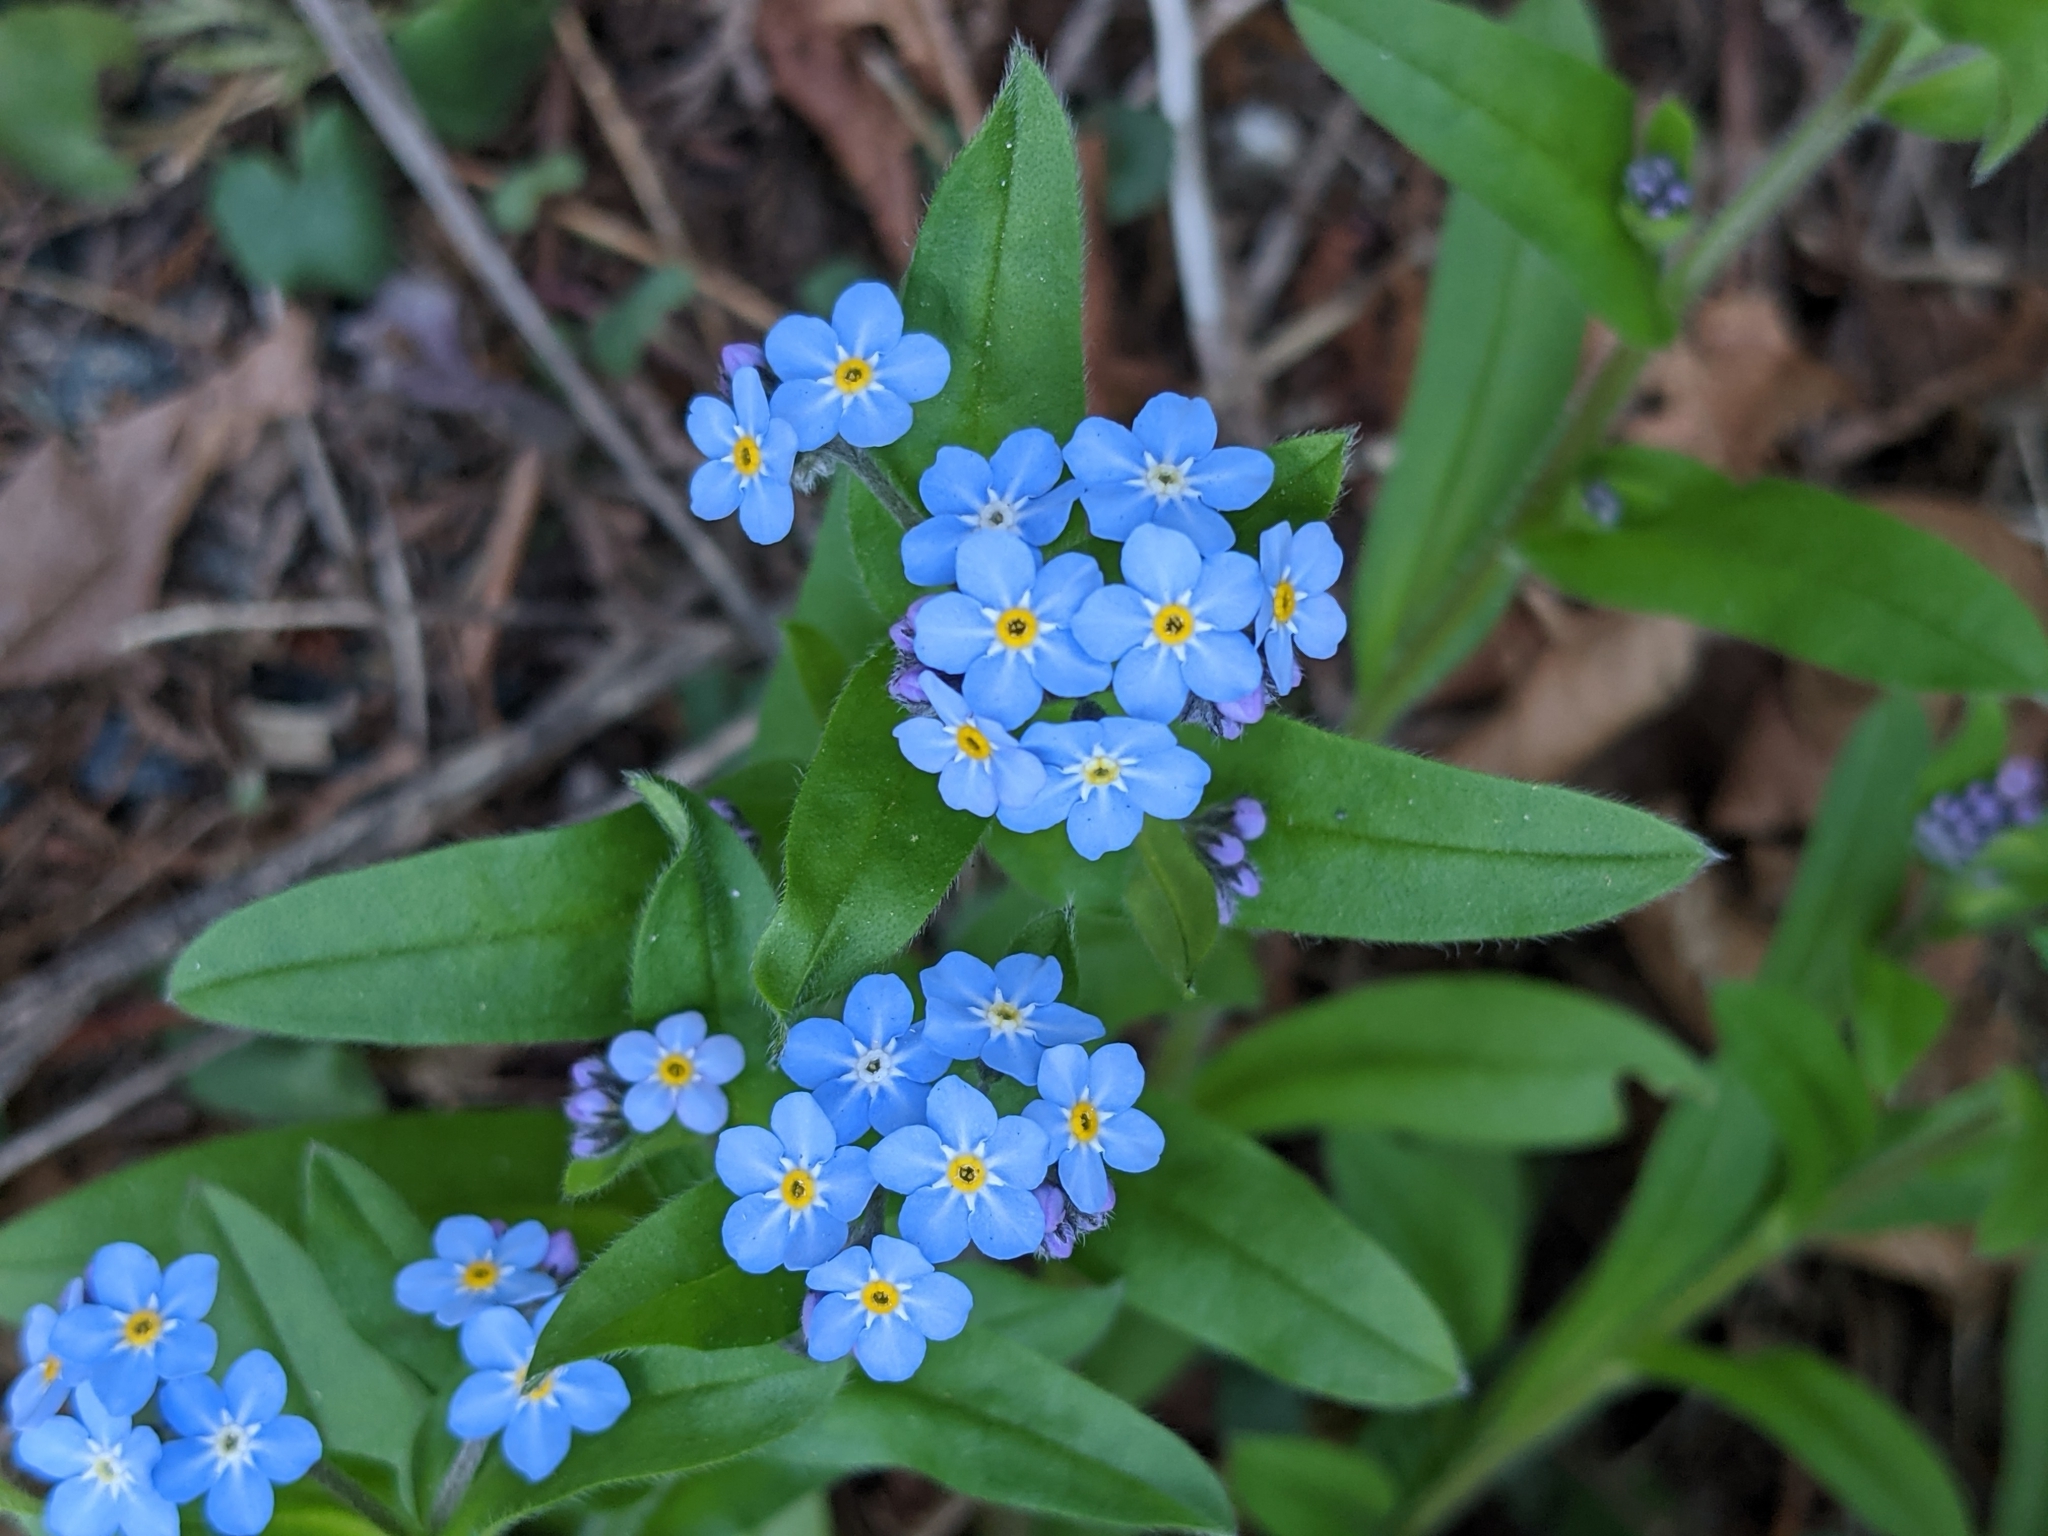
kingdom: Plantae
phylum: Tracheophyta
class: Magnoliopsida
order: Boraginales
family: Boraginaceae
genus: Myosotis
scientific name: Myosotis sylvatica
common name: Wood forget-me-not
